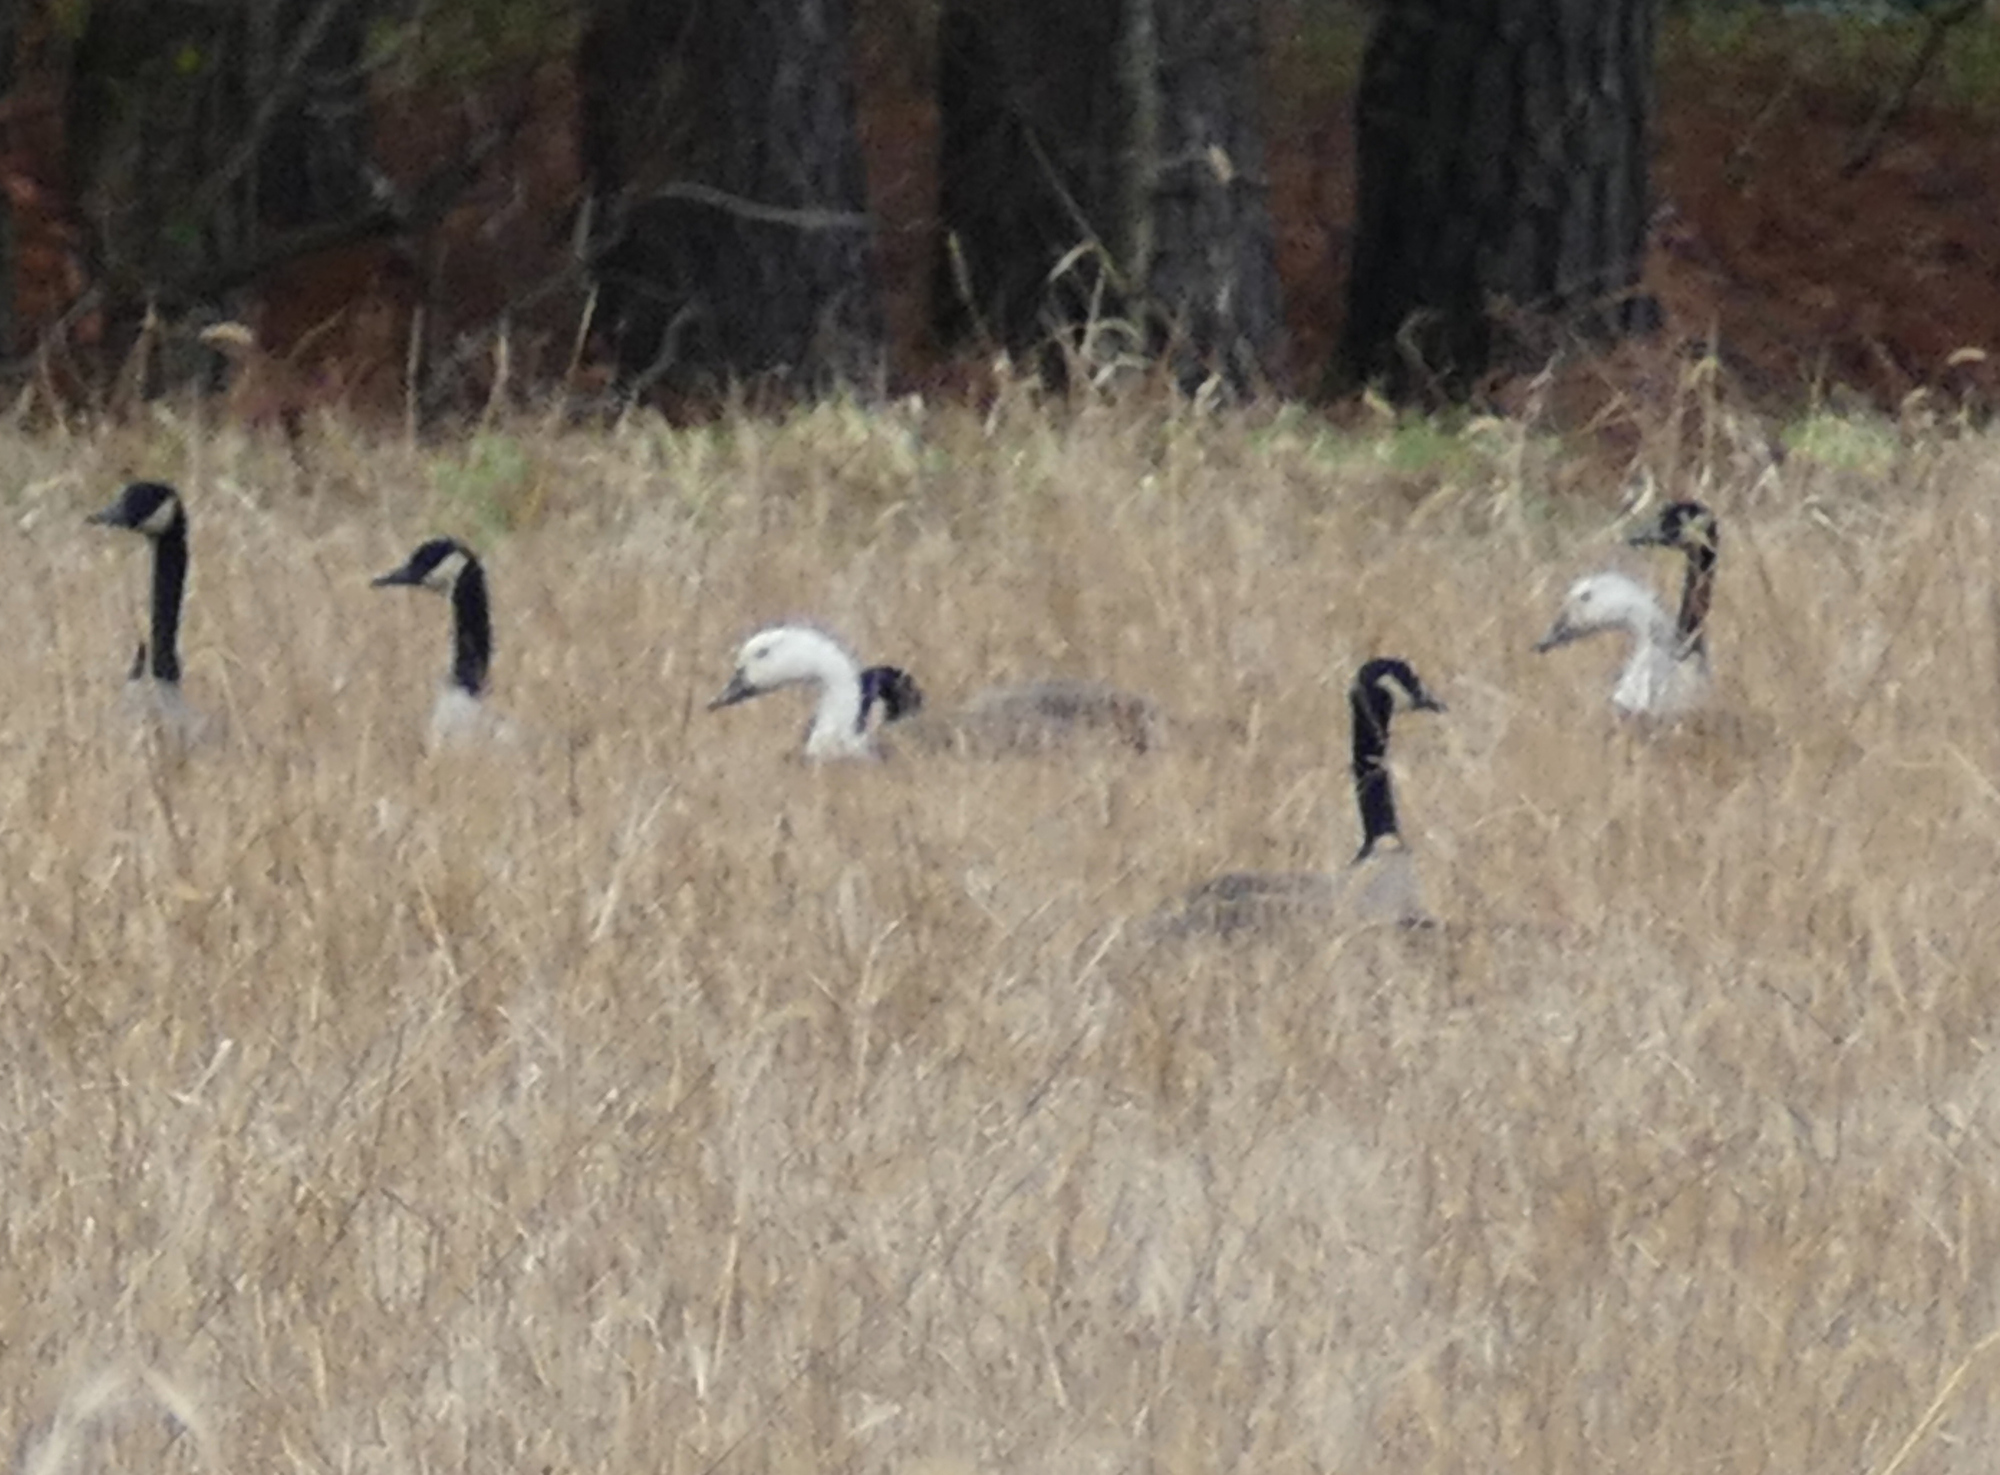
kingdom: Animalia
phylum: Chordata
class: Aves
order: Anseriformes
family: Anatidae
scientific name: Anatidae
